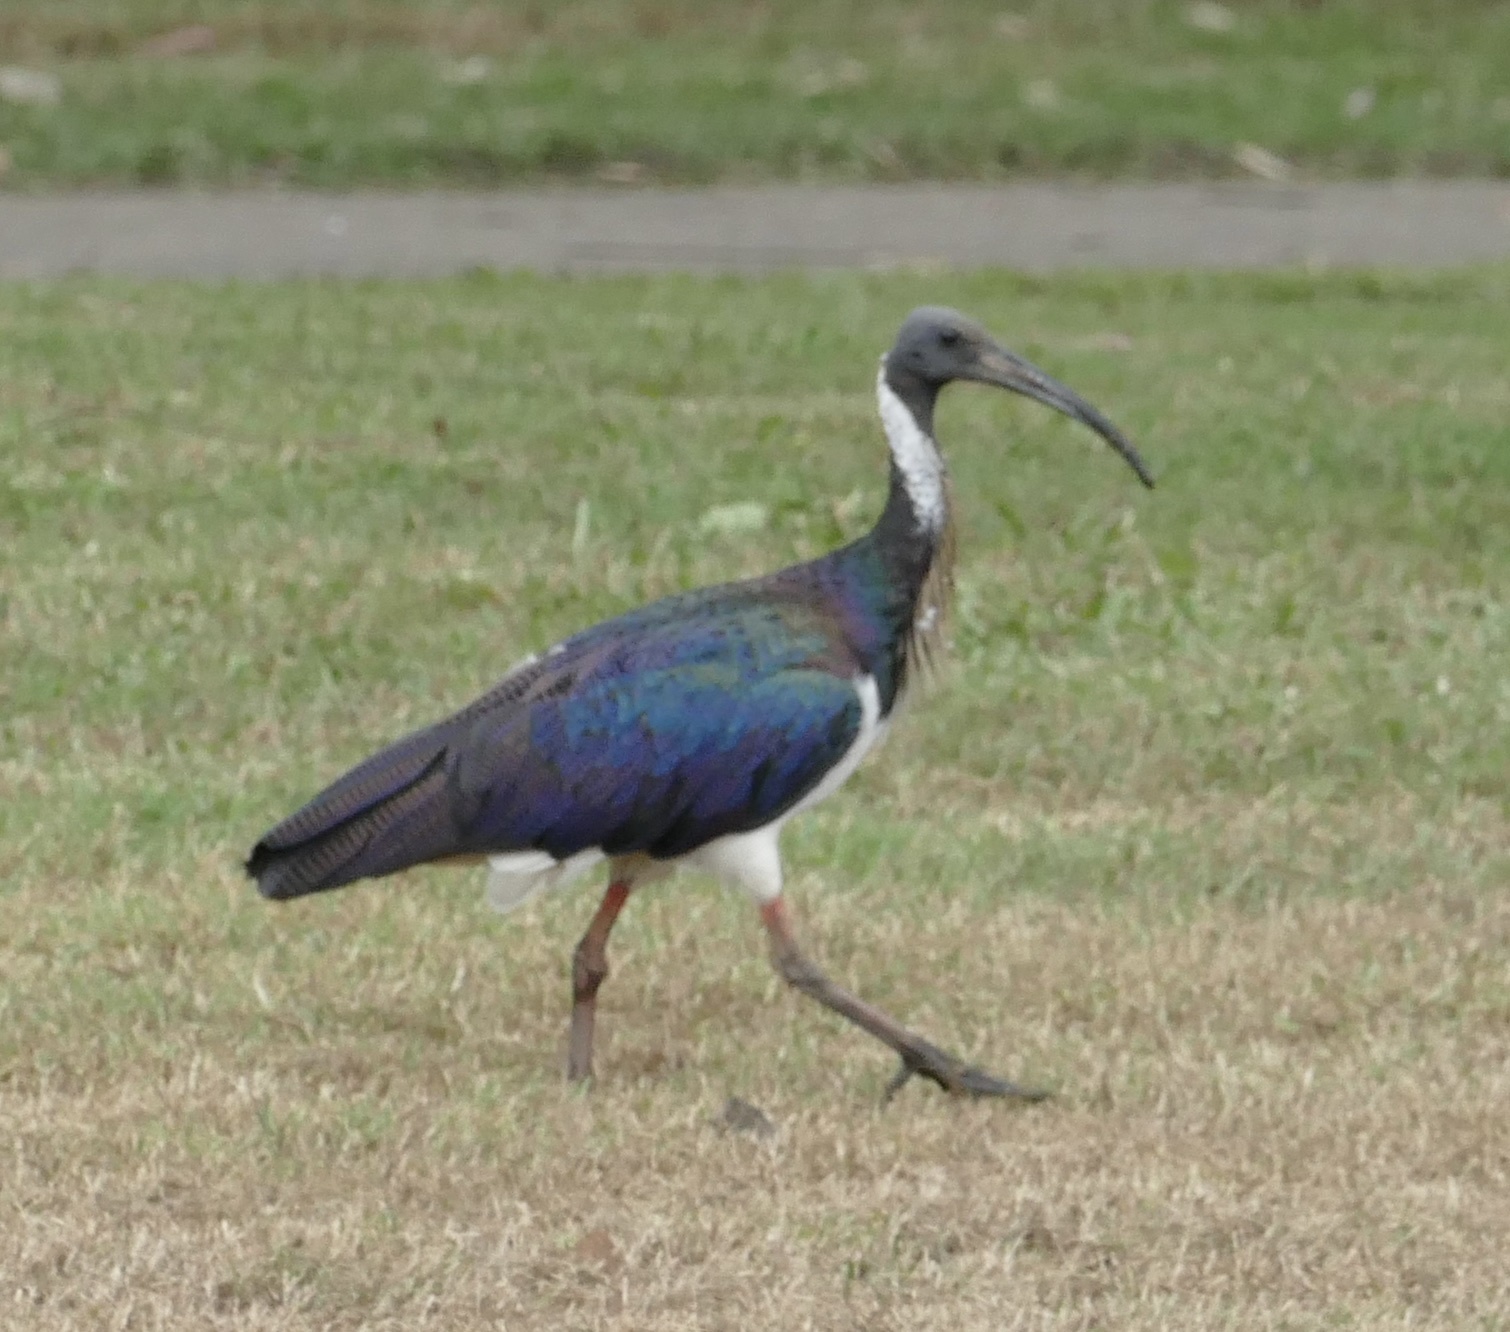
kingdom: Animalia
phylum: Chordata
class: Aves
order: Pelecaniformes
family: Threskiornithidae
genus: Threskiornis
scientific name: Threskiornis spinicollis
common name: Straw-necked ibis
